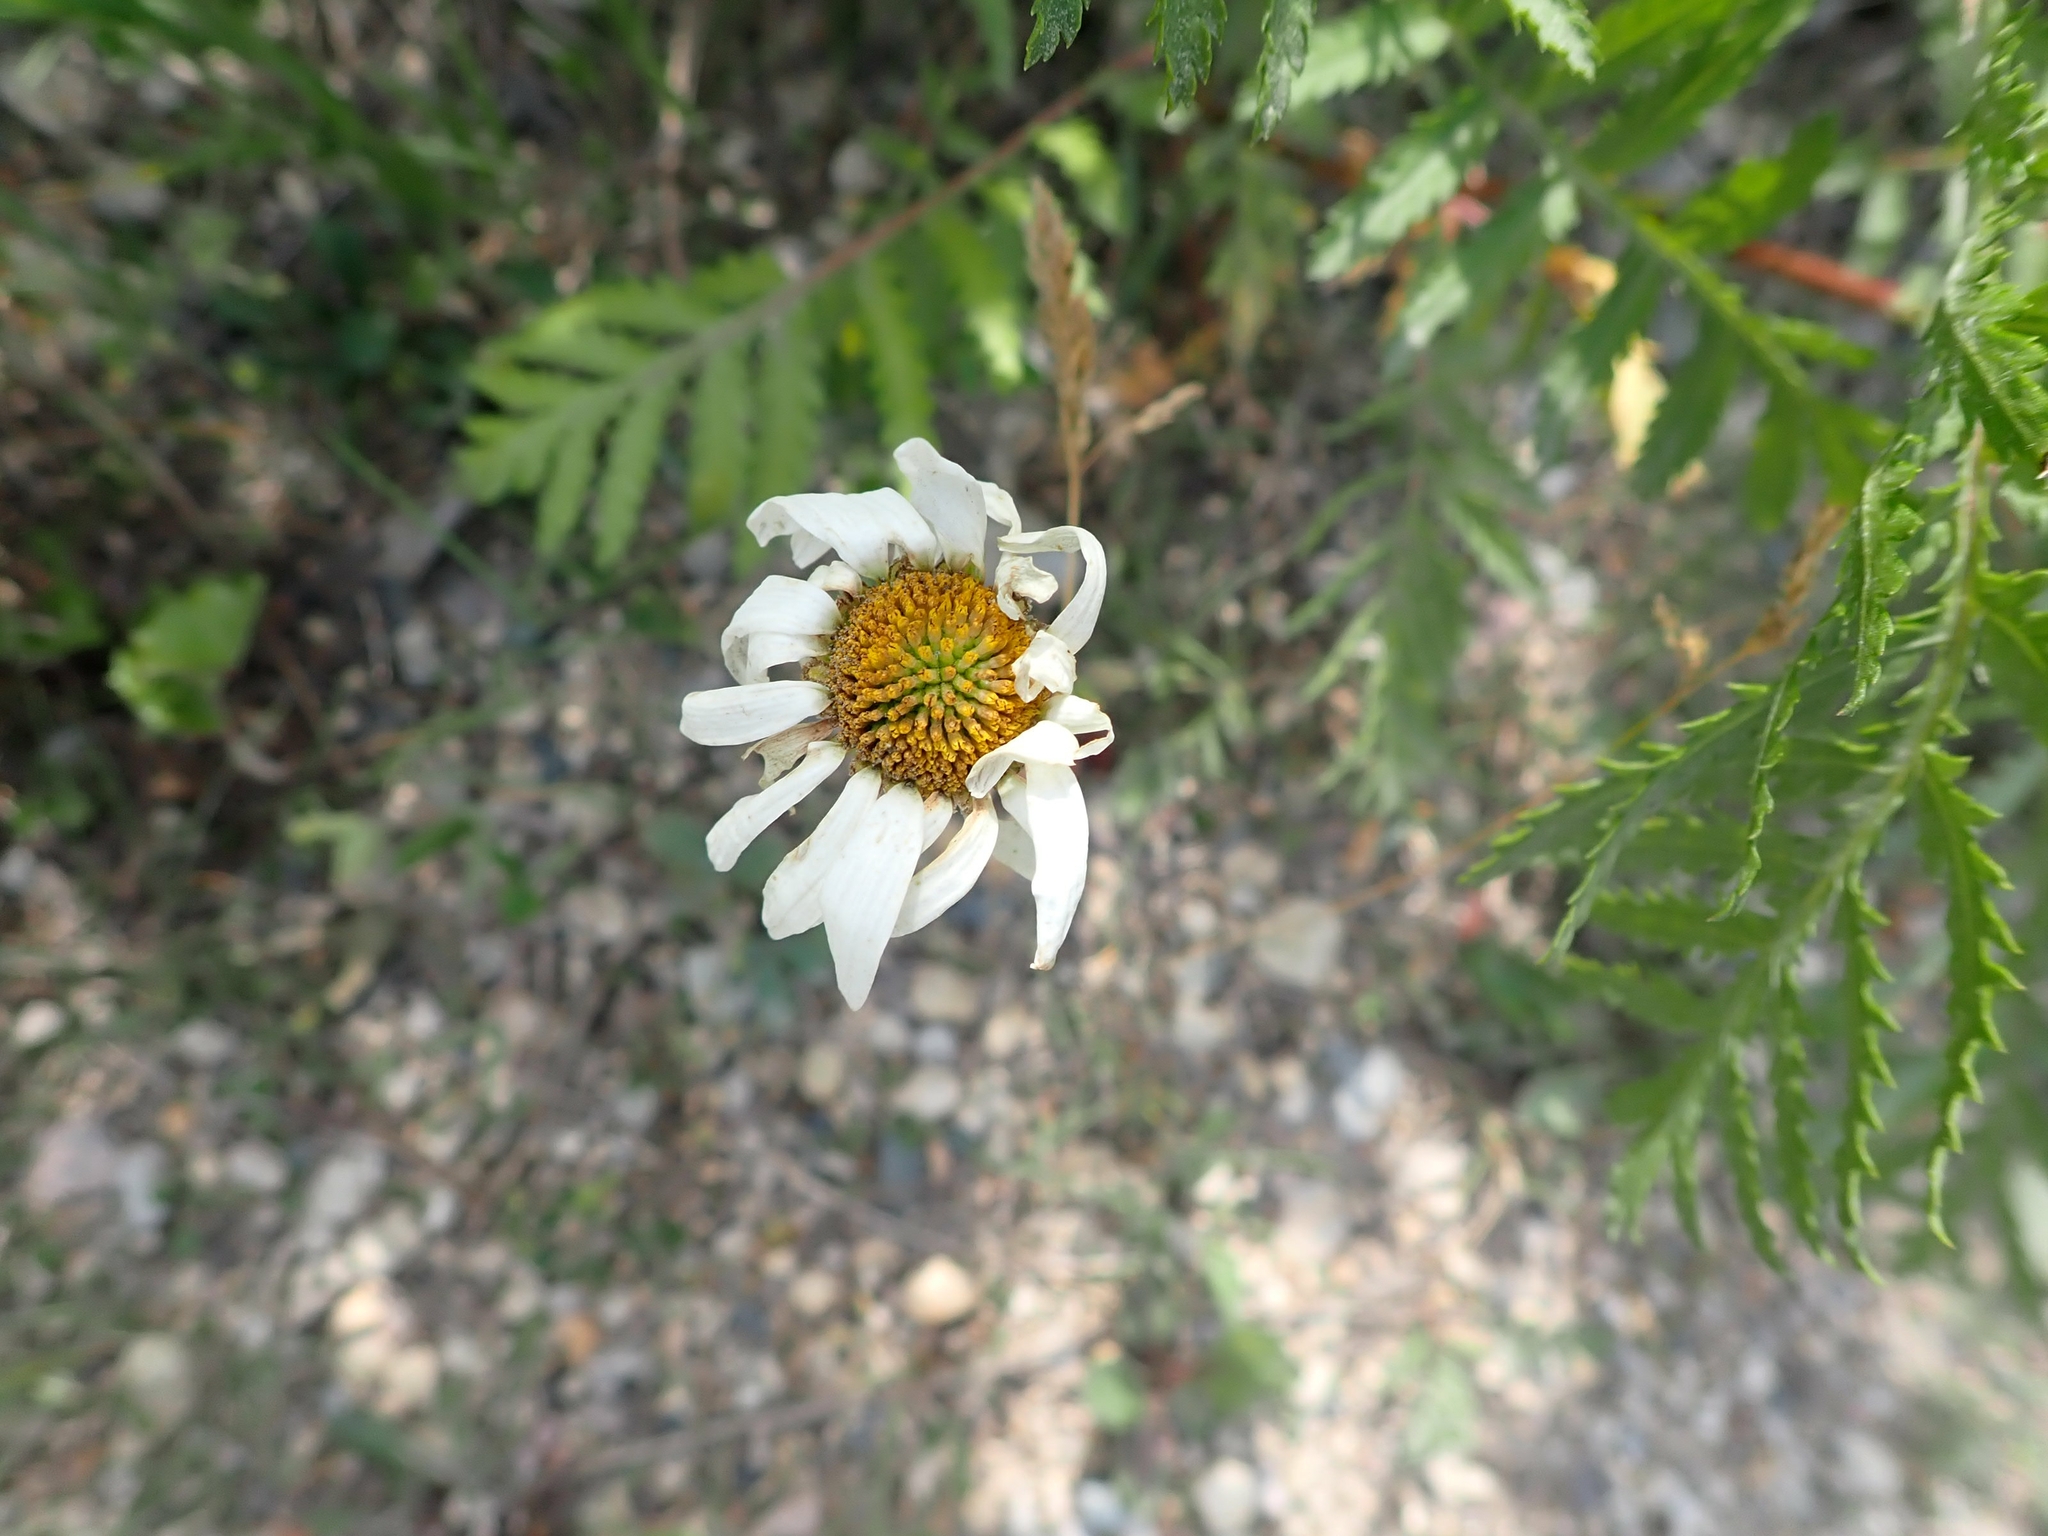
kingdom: Plantae
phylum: Tracheophyta
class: Magnoliopsida
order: Asterales
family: Asteraceae
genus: Leucanthemum
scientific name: Leucanthemum vulgare
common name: Oxeye daisy
